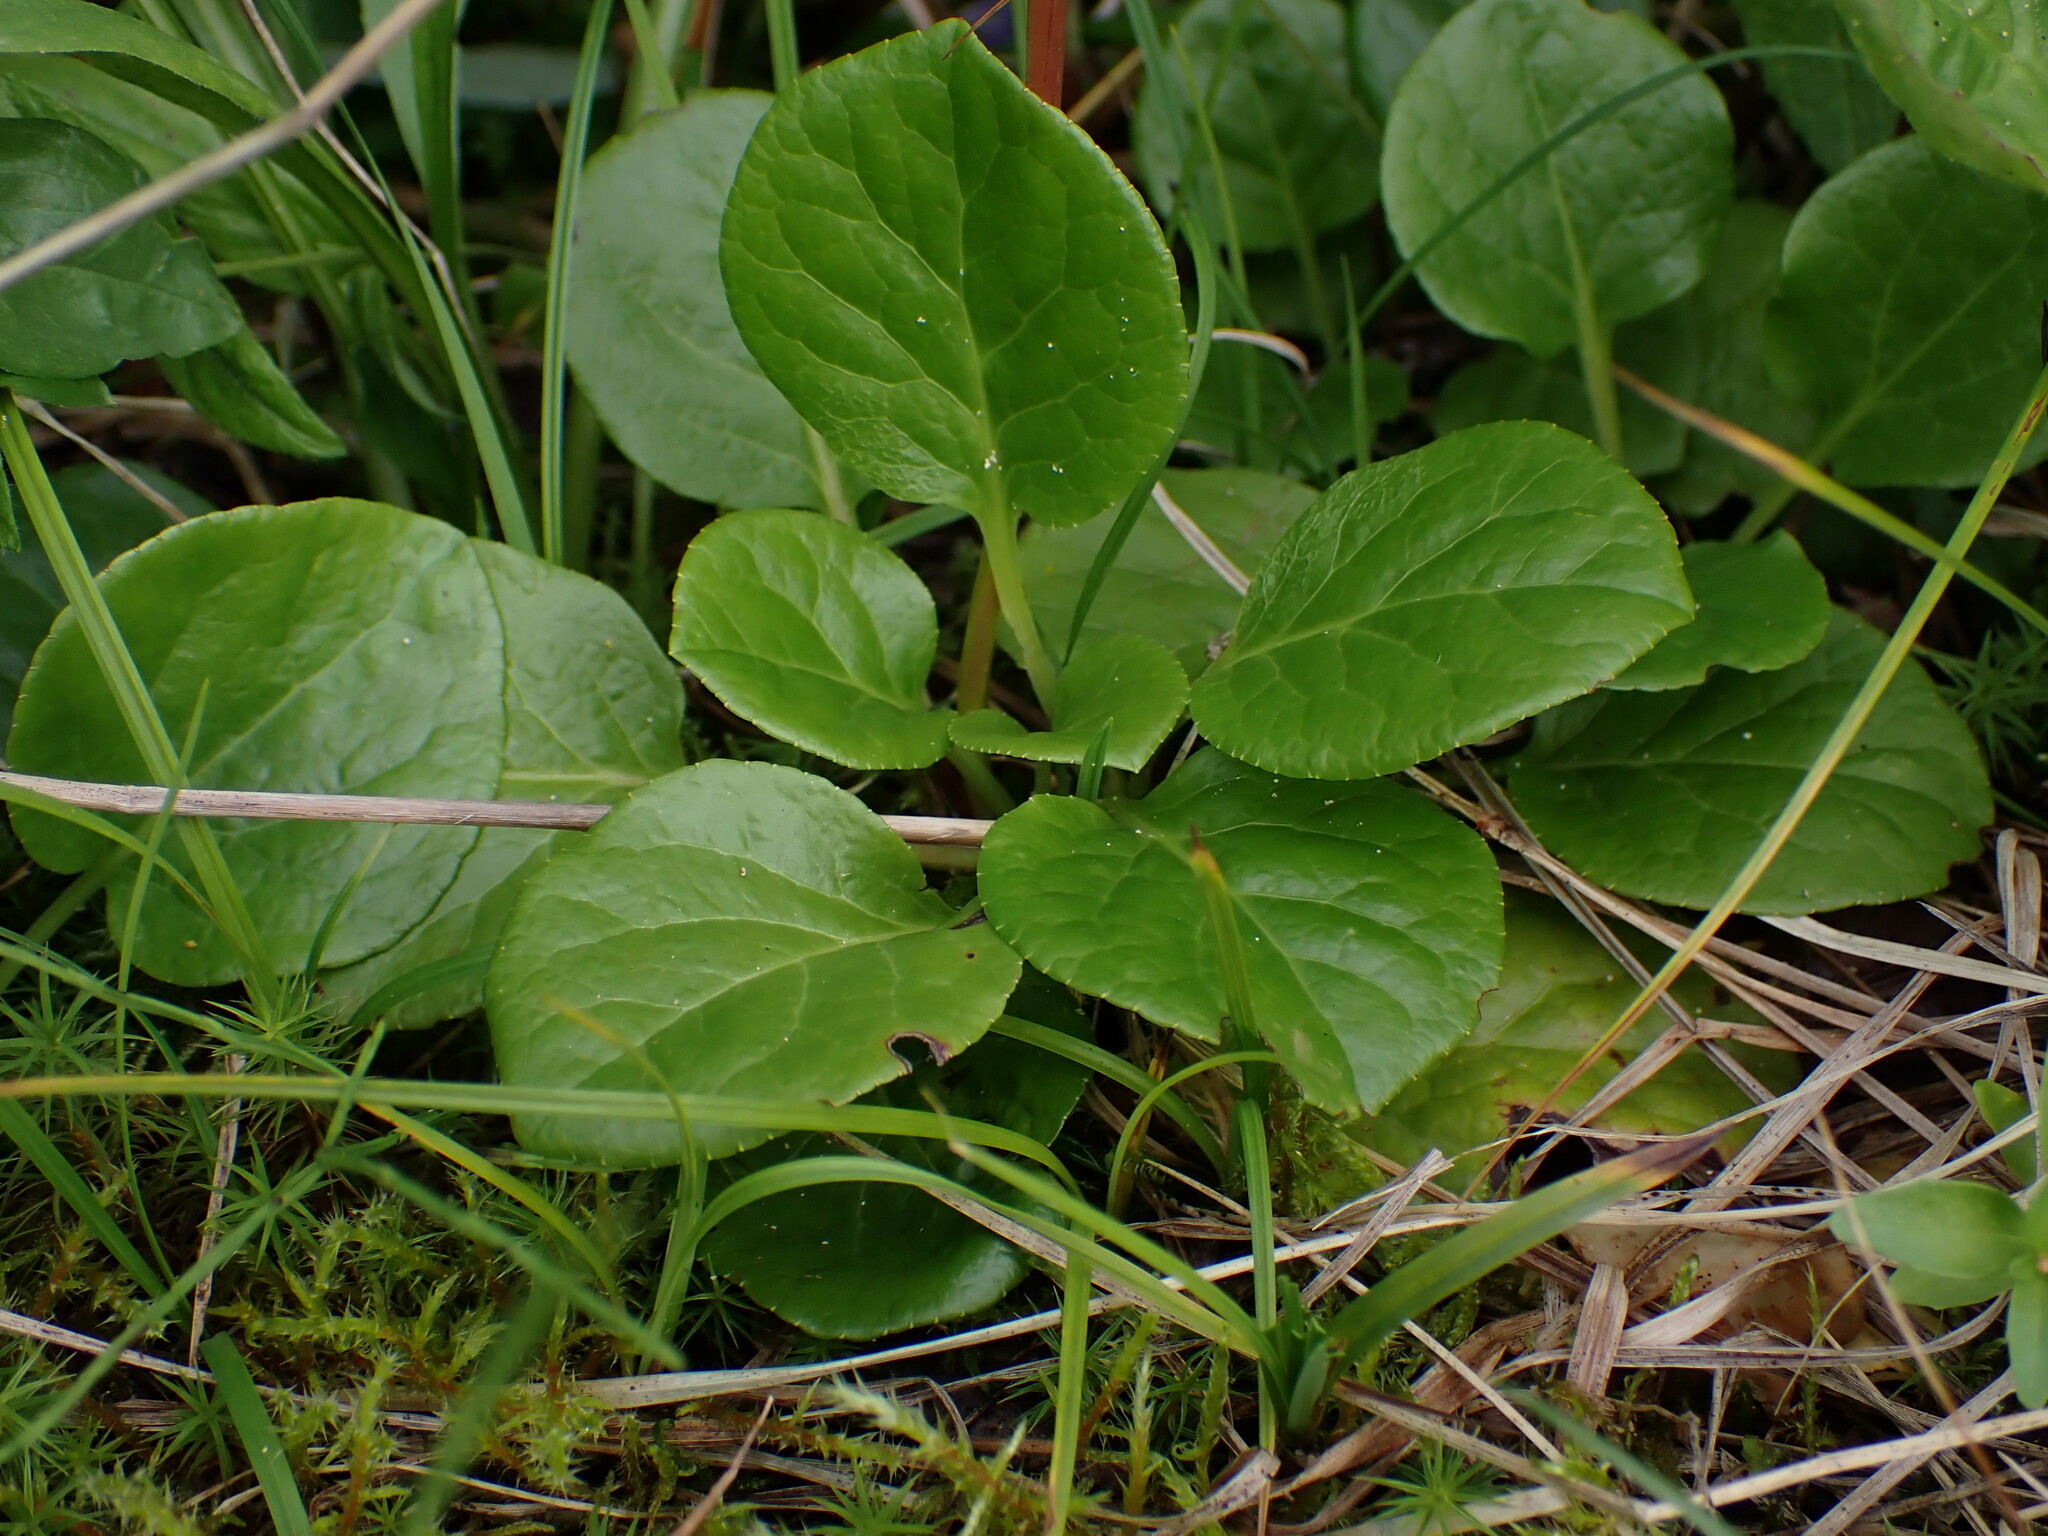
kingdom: Plantae
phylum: Tracheophyta
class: Magnoliopsida
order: Ericales
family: Ericaceae
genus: Pyrola
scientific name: Pyrola asarifolia
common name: Bog wintergreen
